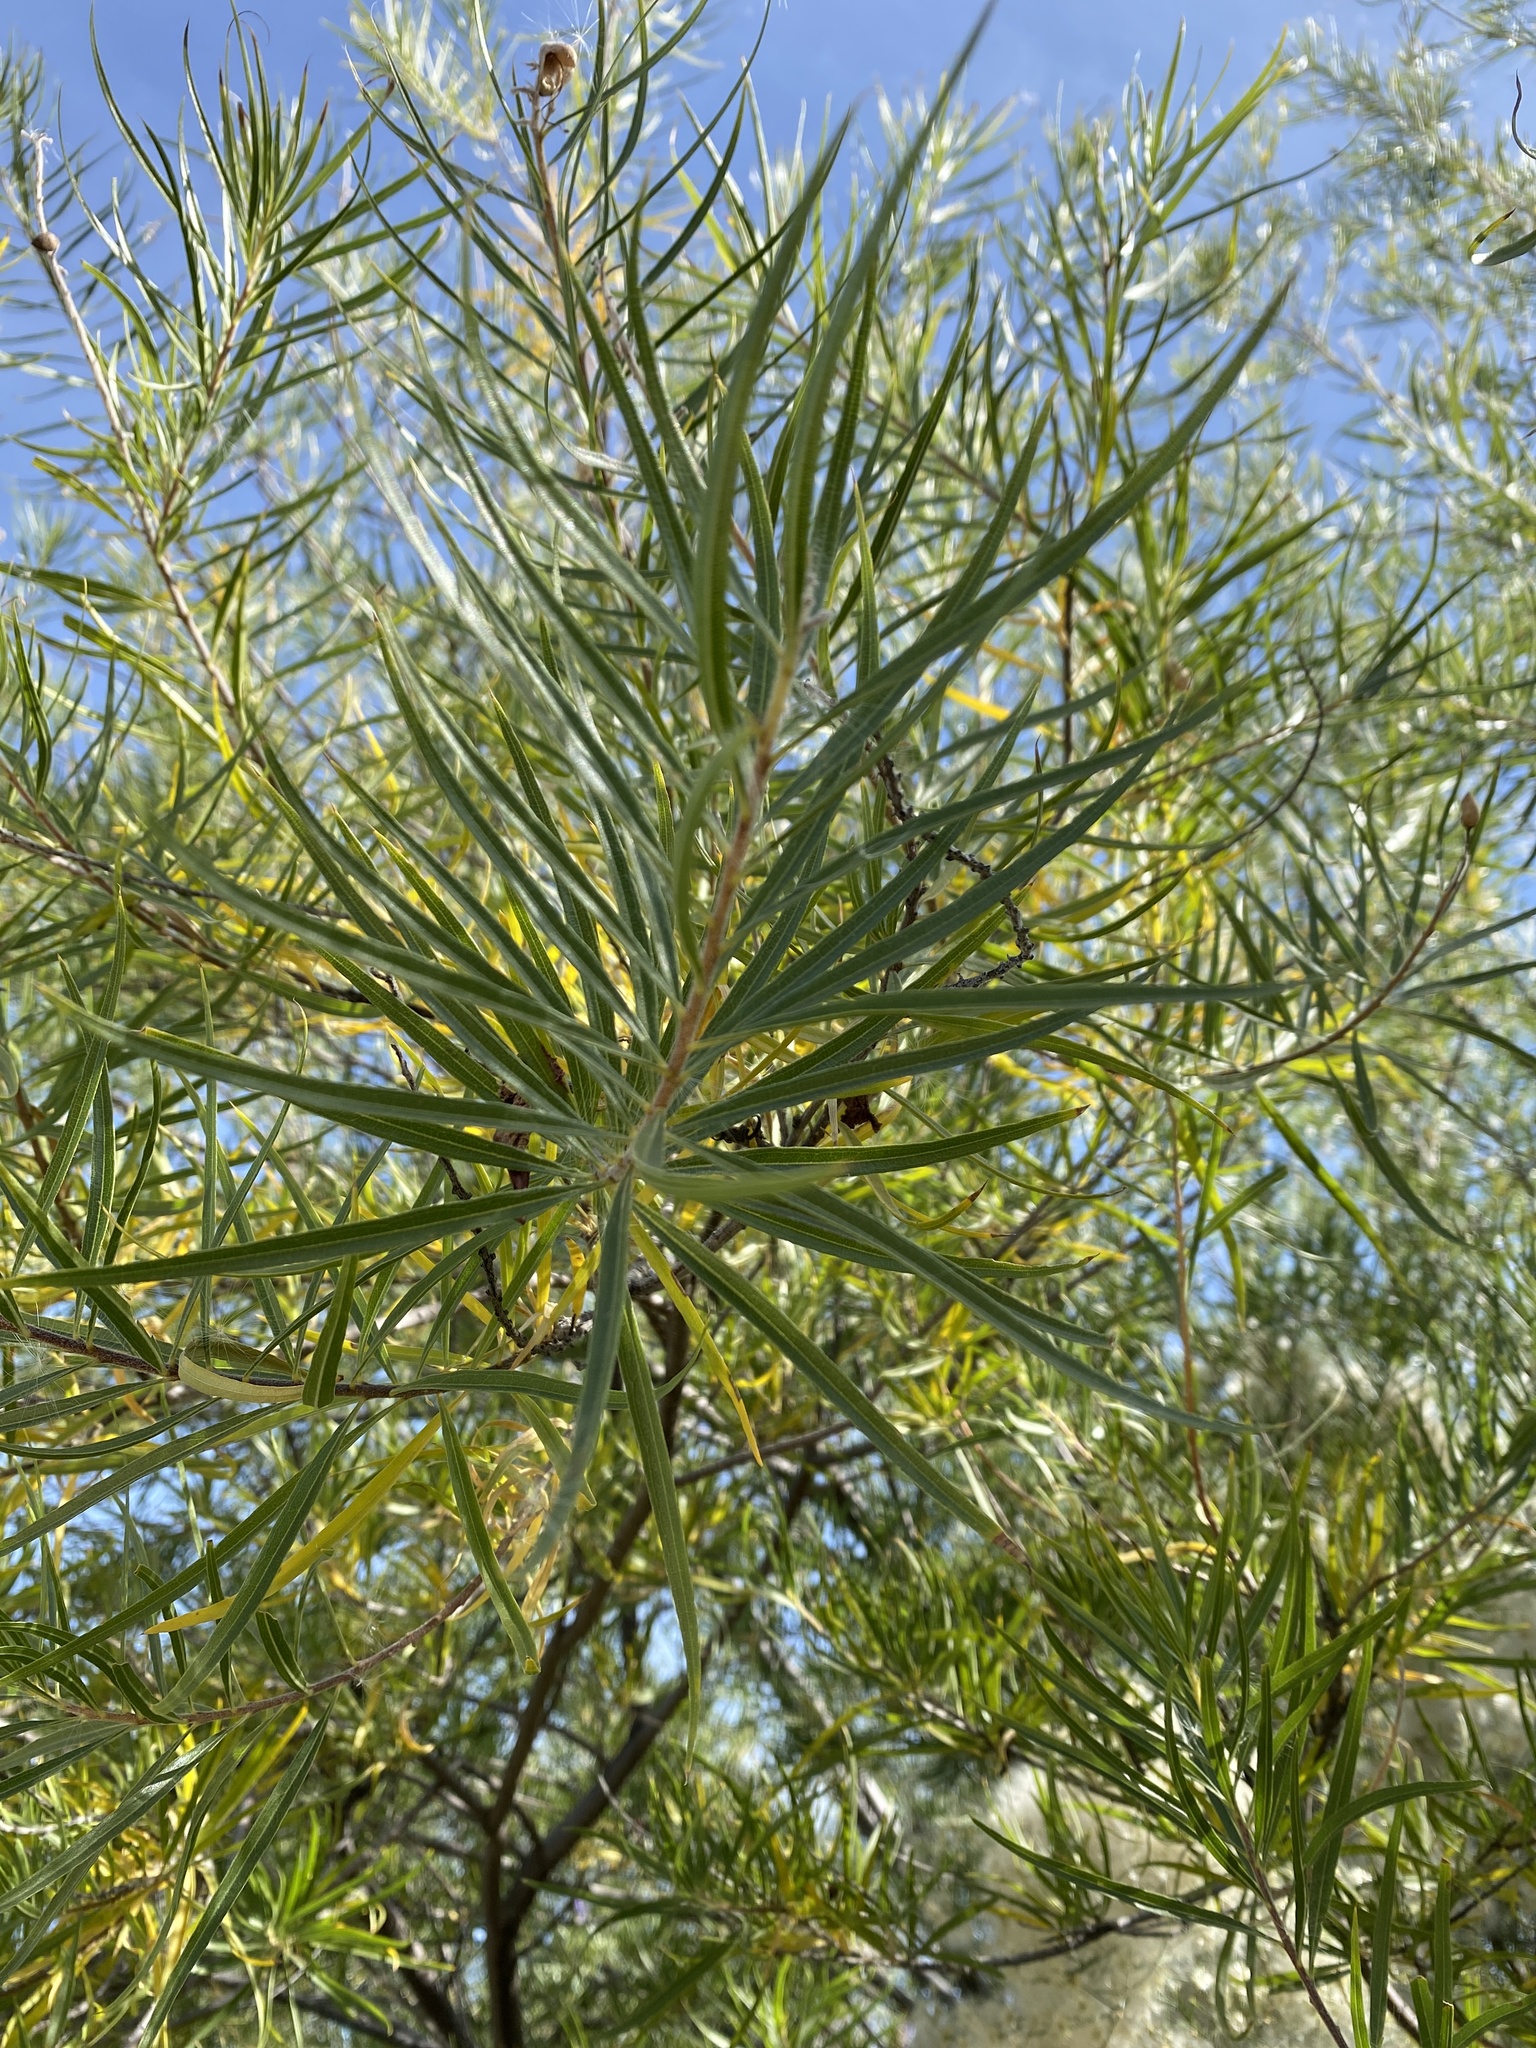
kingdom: Plantae
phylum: Tracheophyta
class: Magnoliopsida
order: Lamiales
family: Bignoniaceae
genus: Chilopsis
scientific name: Chilopsis linearis
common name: Desert-willow
